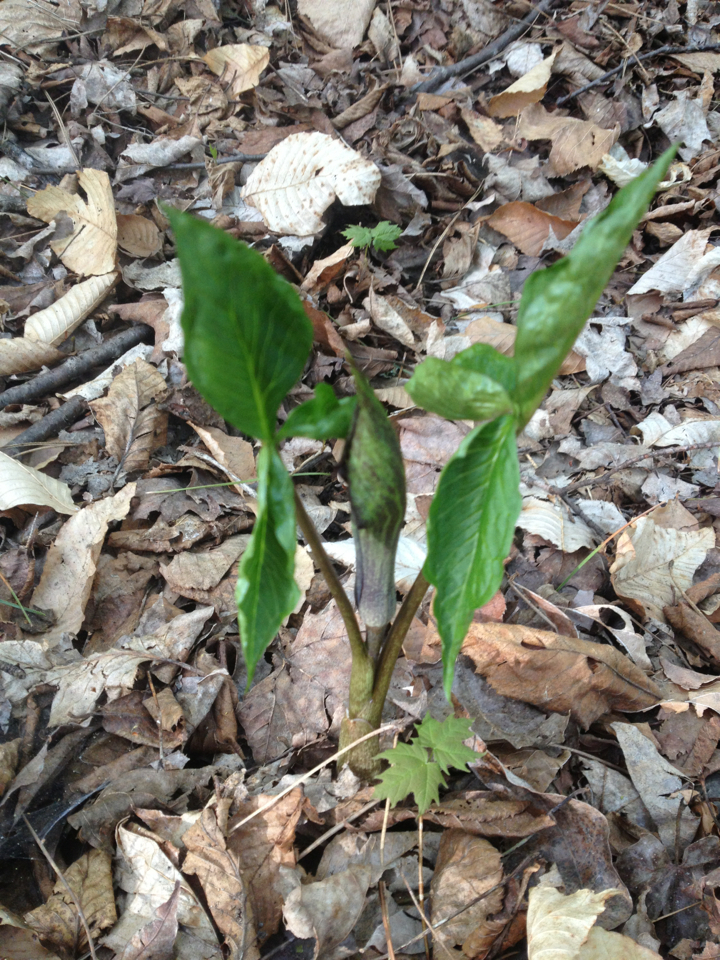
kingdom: Plantae
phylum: Tracheophyta
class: Liliopsida
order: Alismatales
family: Araceae
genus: Arisaema
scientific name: Arisaema triphyllum
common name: Jack-in-the-pulpit
